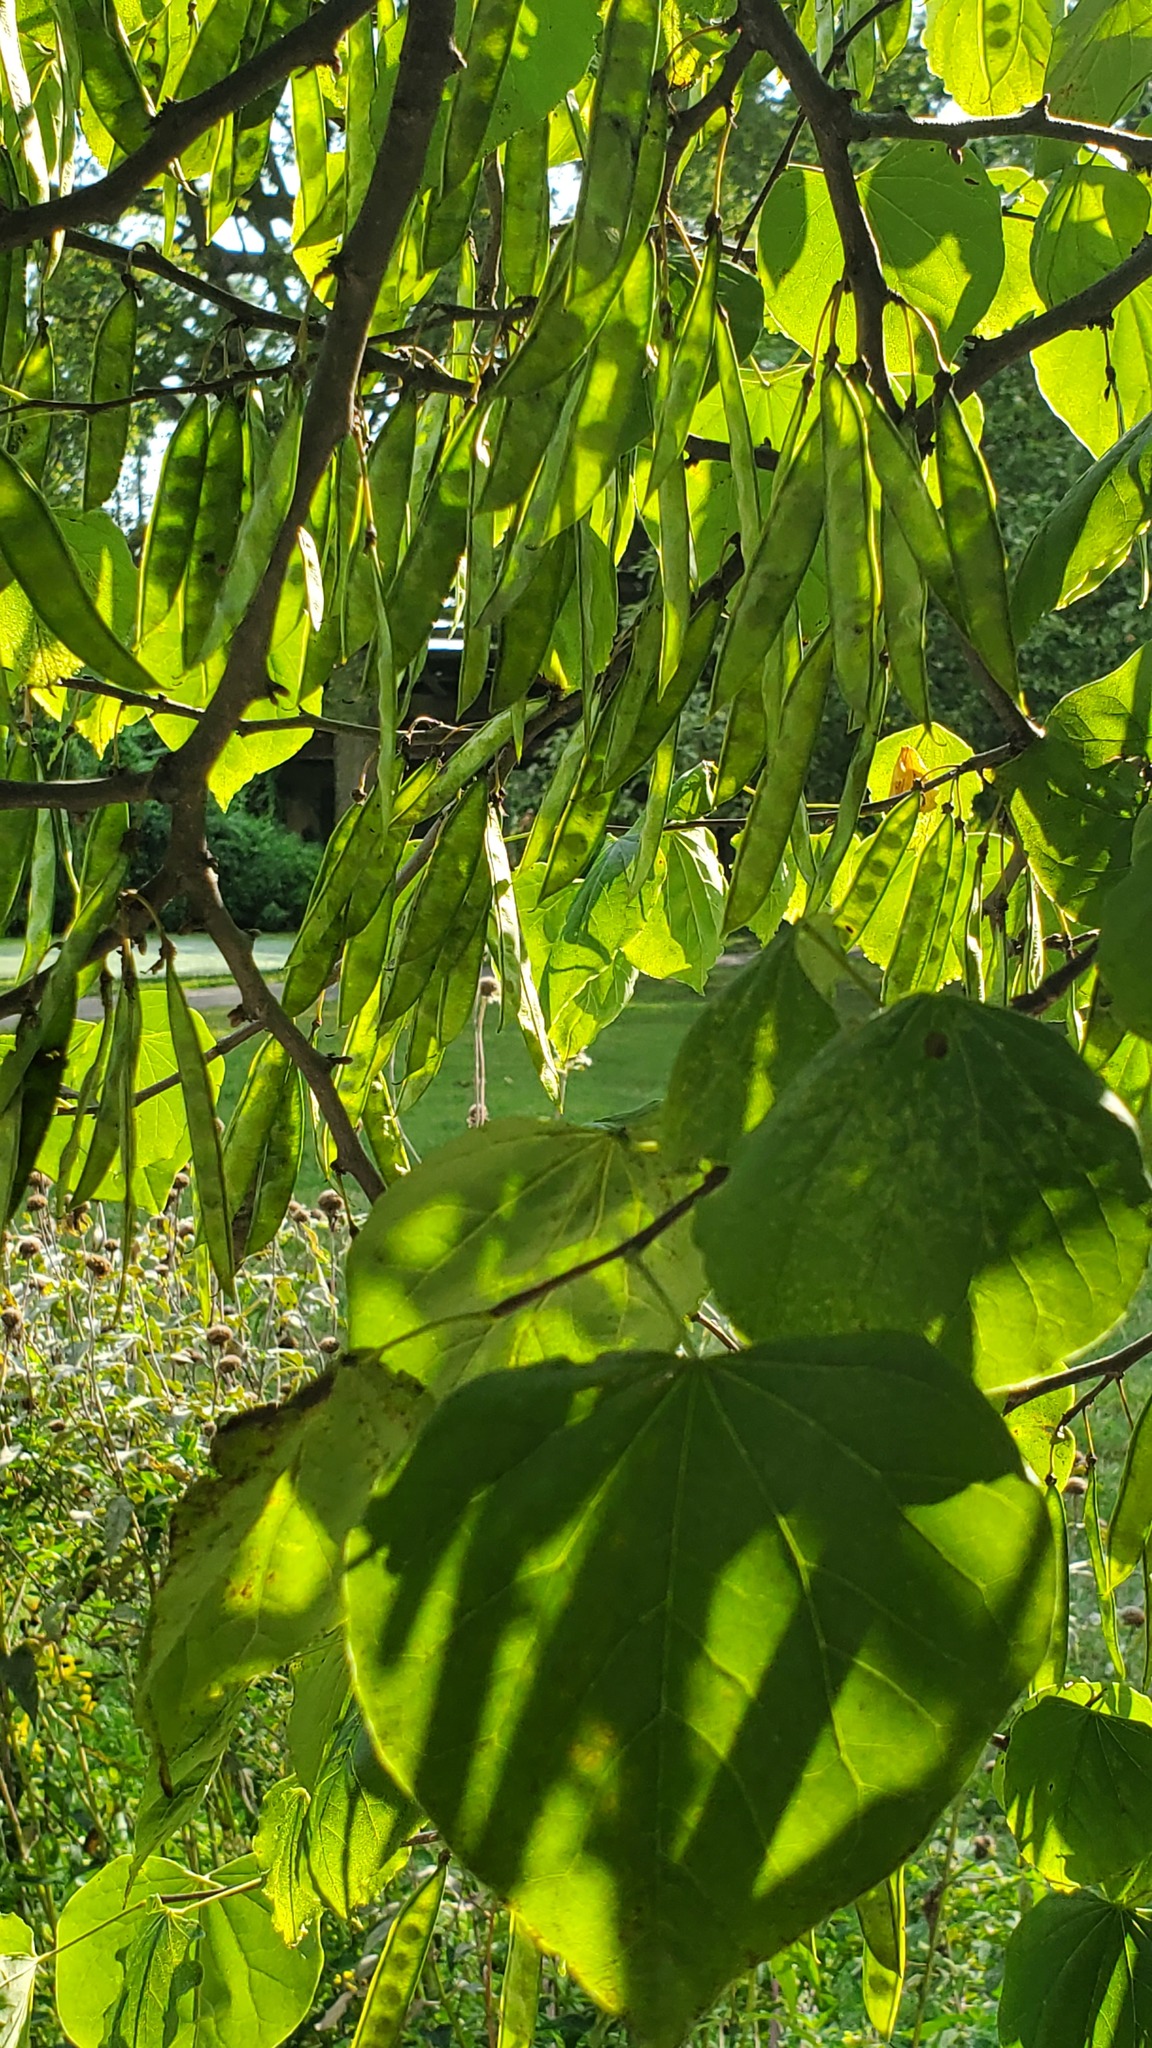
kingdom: Plantae
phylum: Tracheophyta
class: Magnoliopsida
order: Fabales
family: Fabaceae
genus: Cercis
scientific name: Cercis canadensis
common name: Eastern redbud
